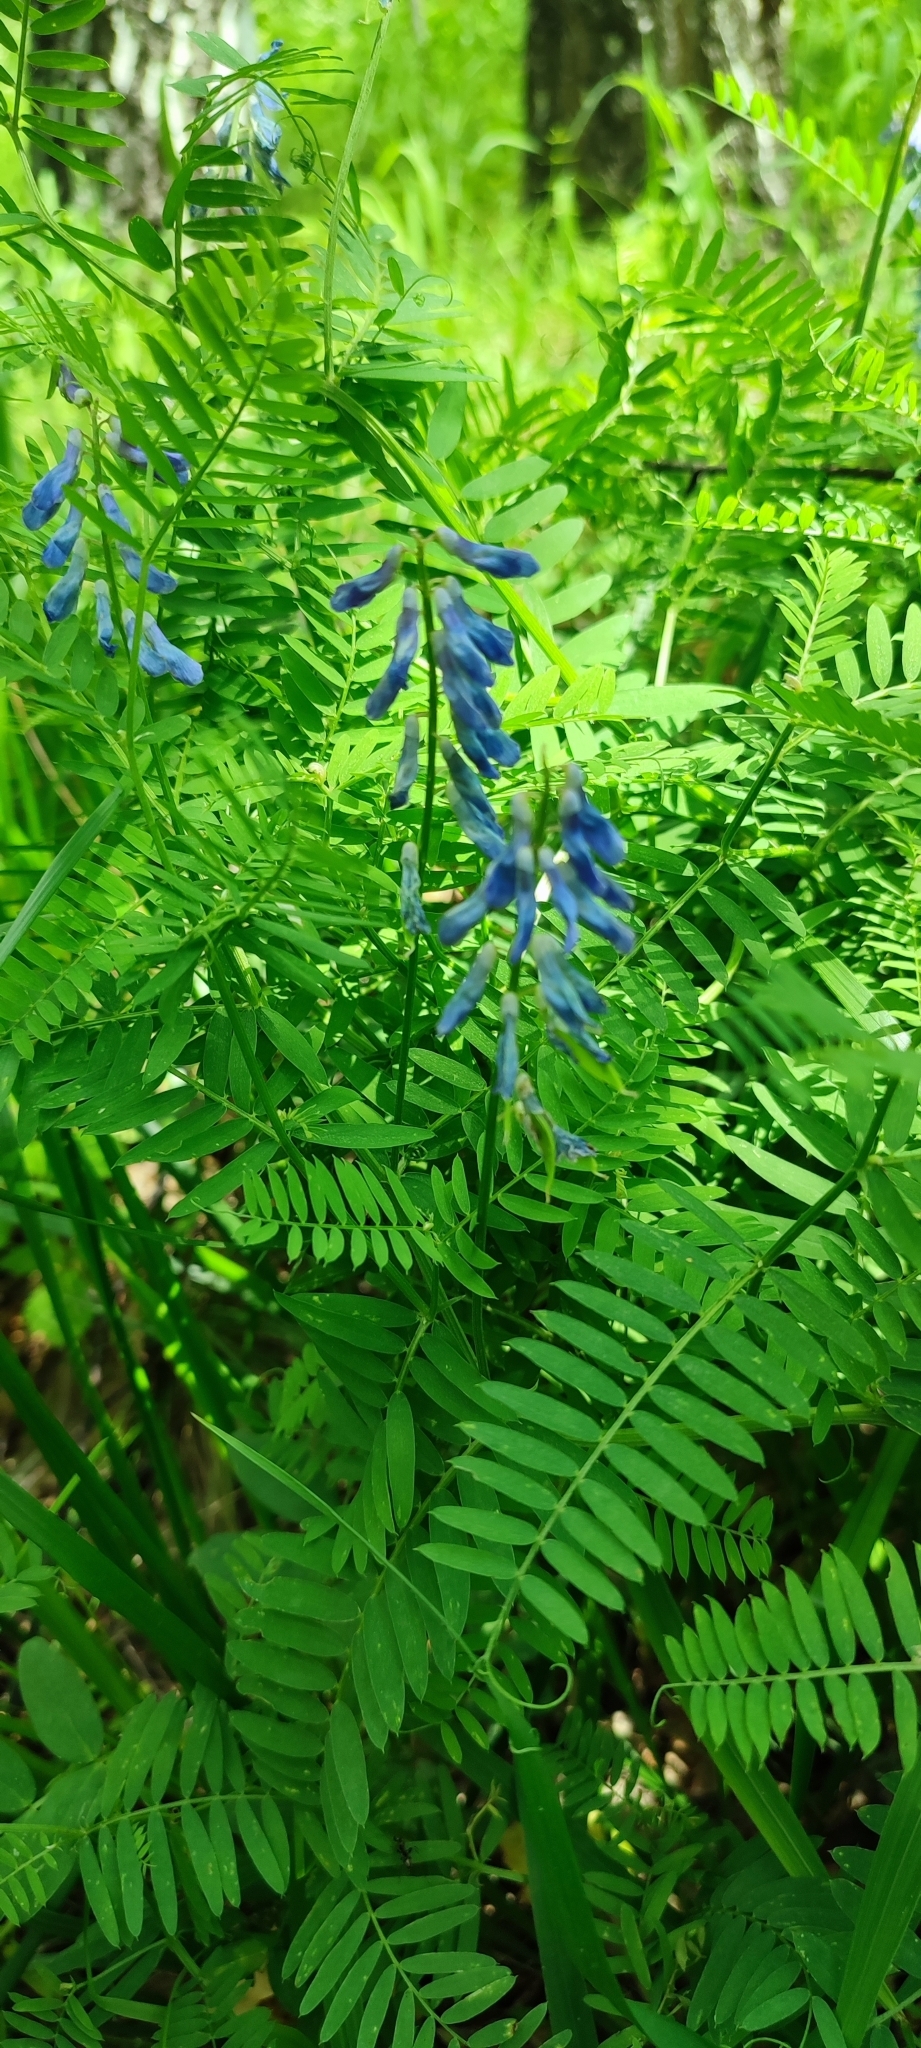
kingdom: Plantae
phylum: Tracheophyta
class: Magnoliopsida
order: Fabales
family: Fabaceae
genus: Vicia
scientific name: Vicia cracca
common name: Bird vetch
